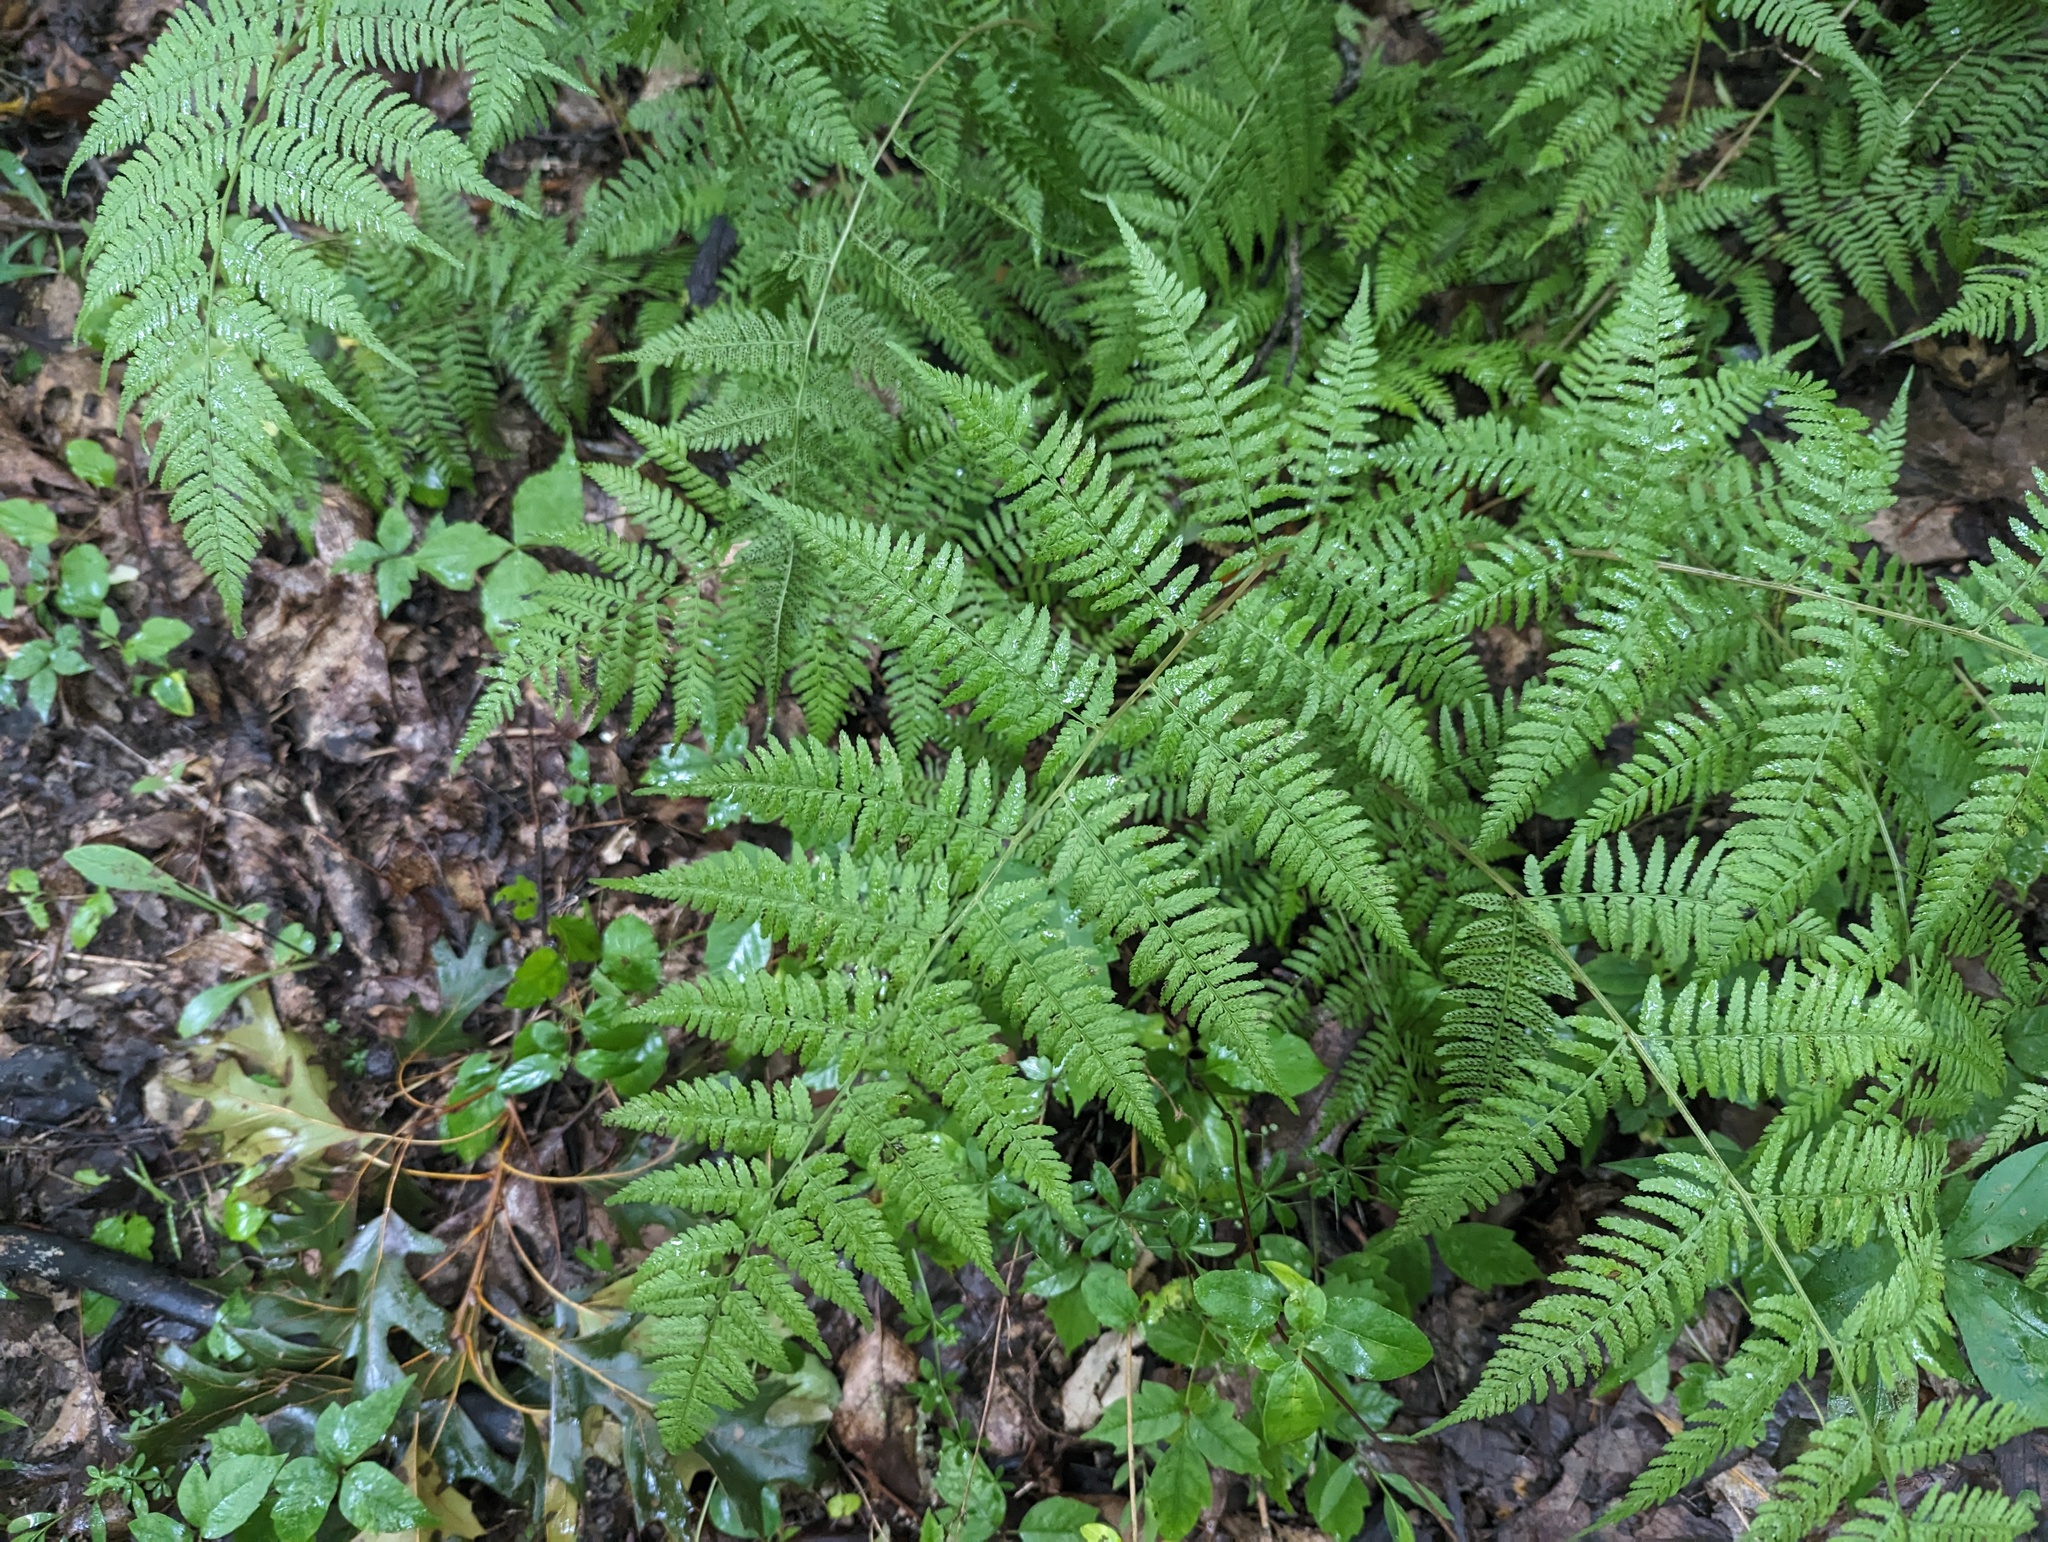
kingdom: Plantae
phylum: Tracheophyta
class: Polypodiopsida
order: Polypodiales
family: Athyriaceae
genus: Athyrium
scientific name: Athyrium asplenioides
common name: Southern lady fern
